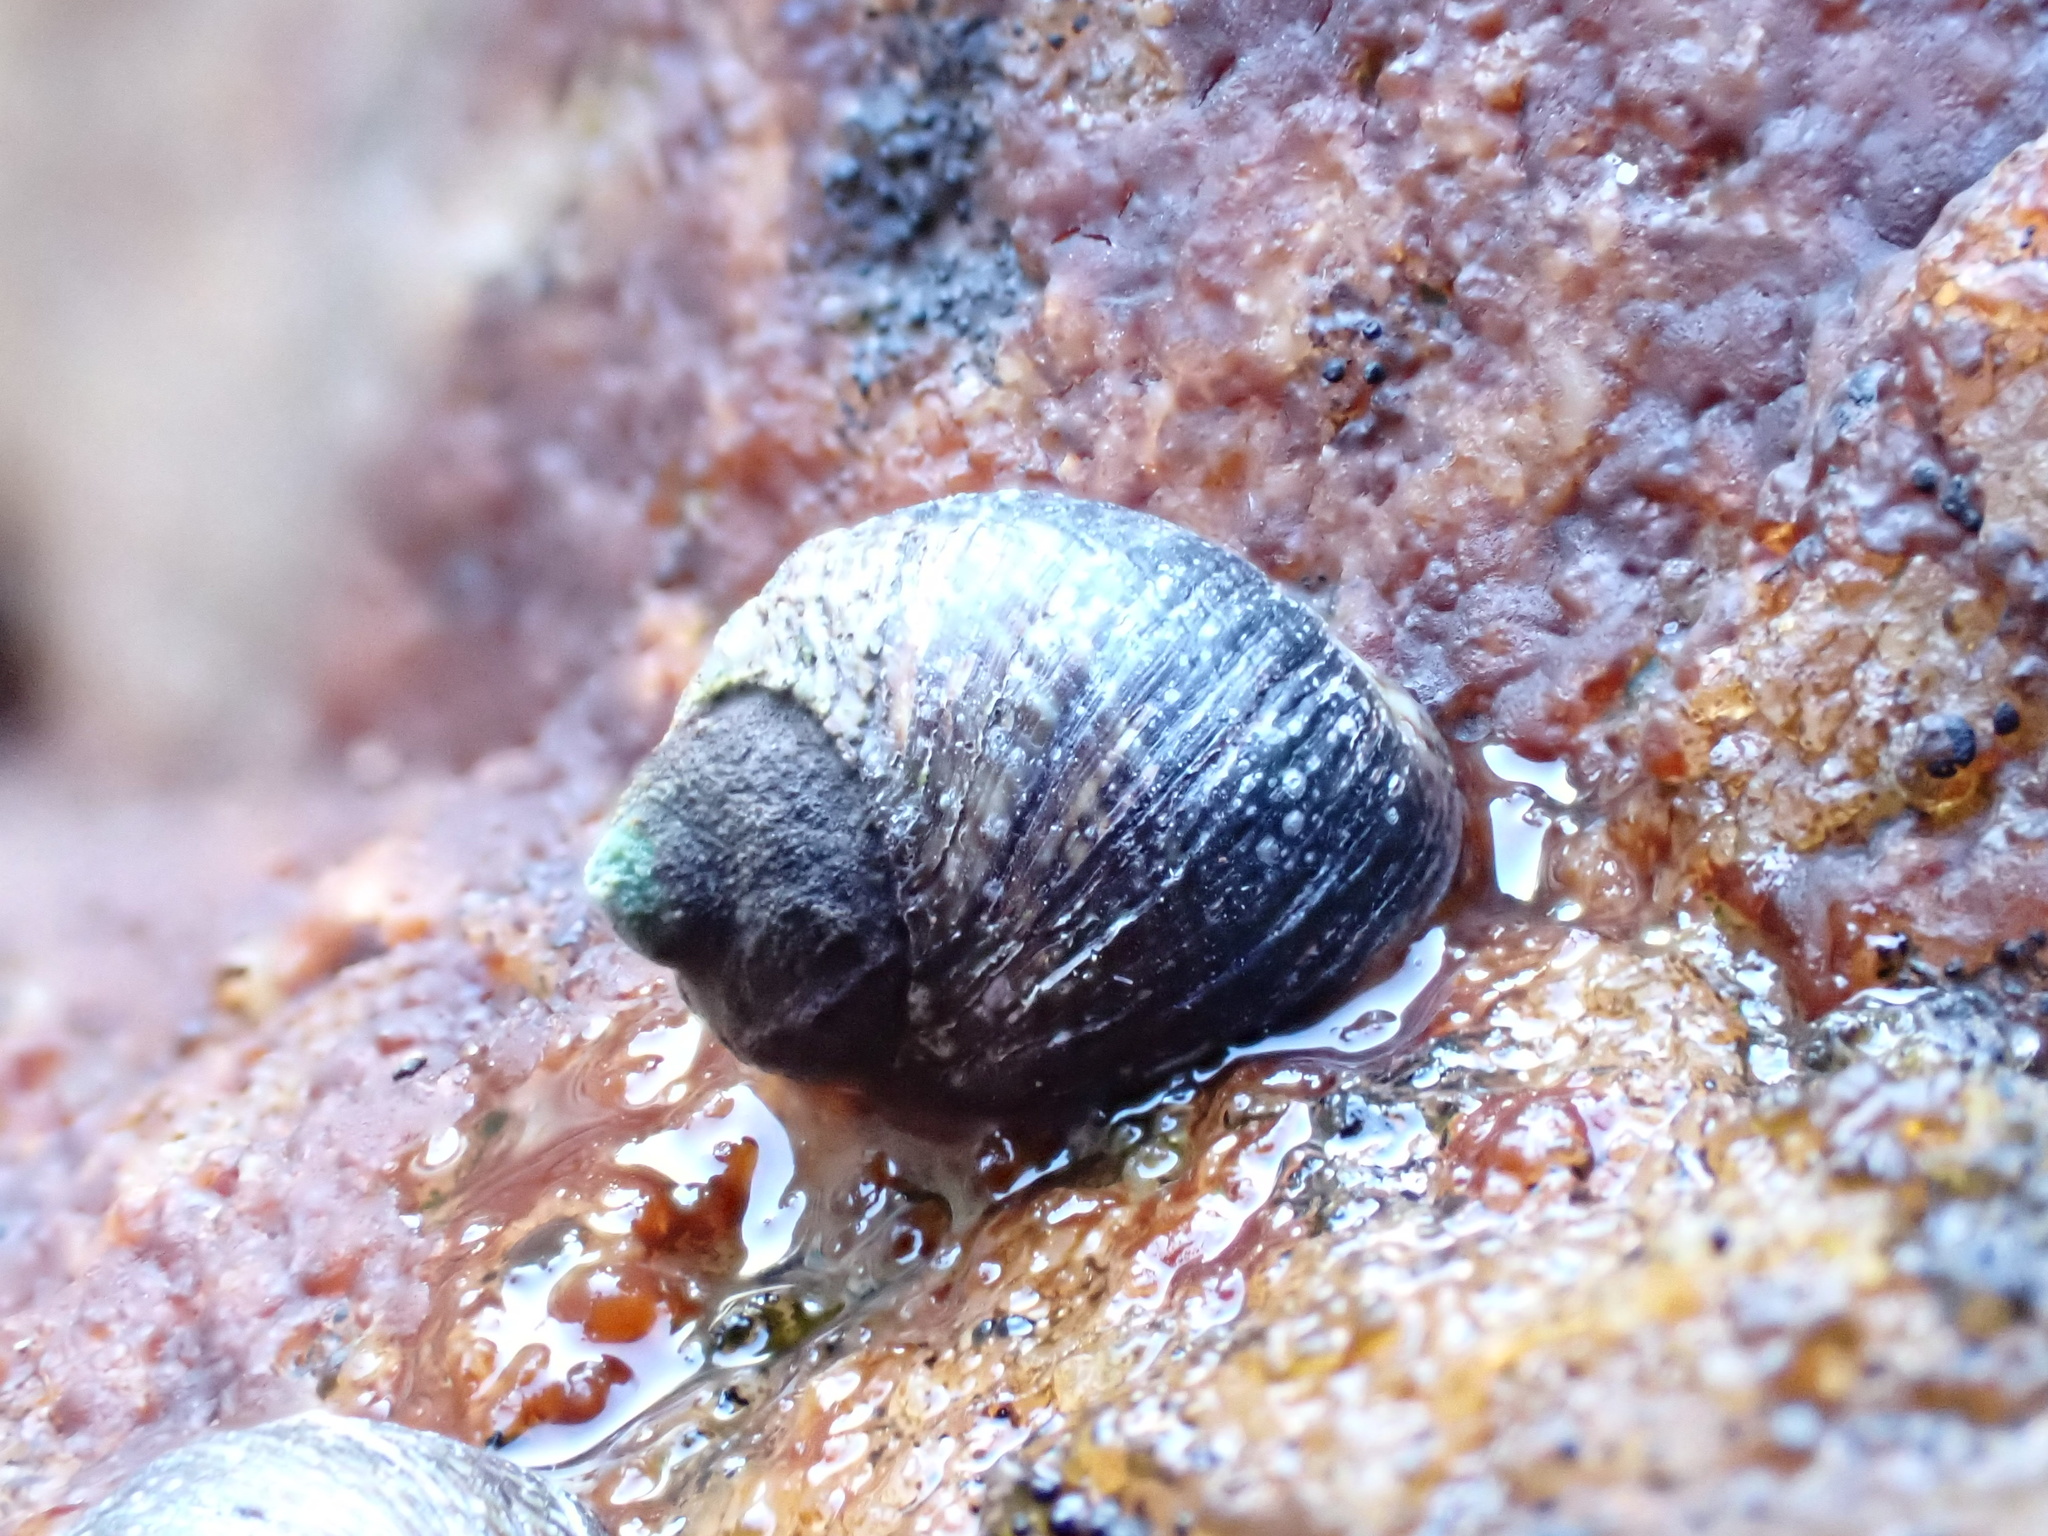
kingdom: Animalia
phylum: Mollusca
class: Gastropoda
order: Littorinimorpha
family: Littorinidae
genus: Afrolittorina
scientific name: Afrolittorina knysnaensis
